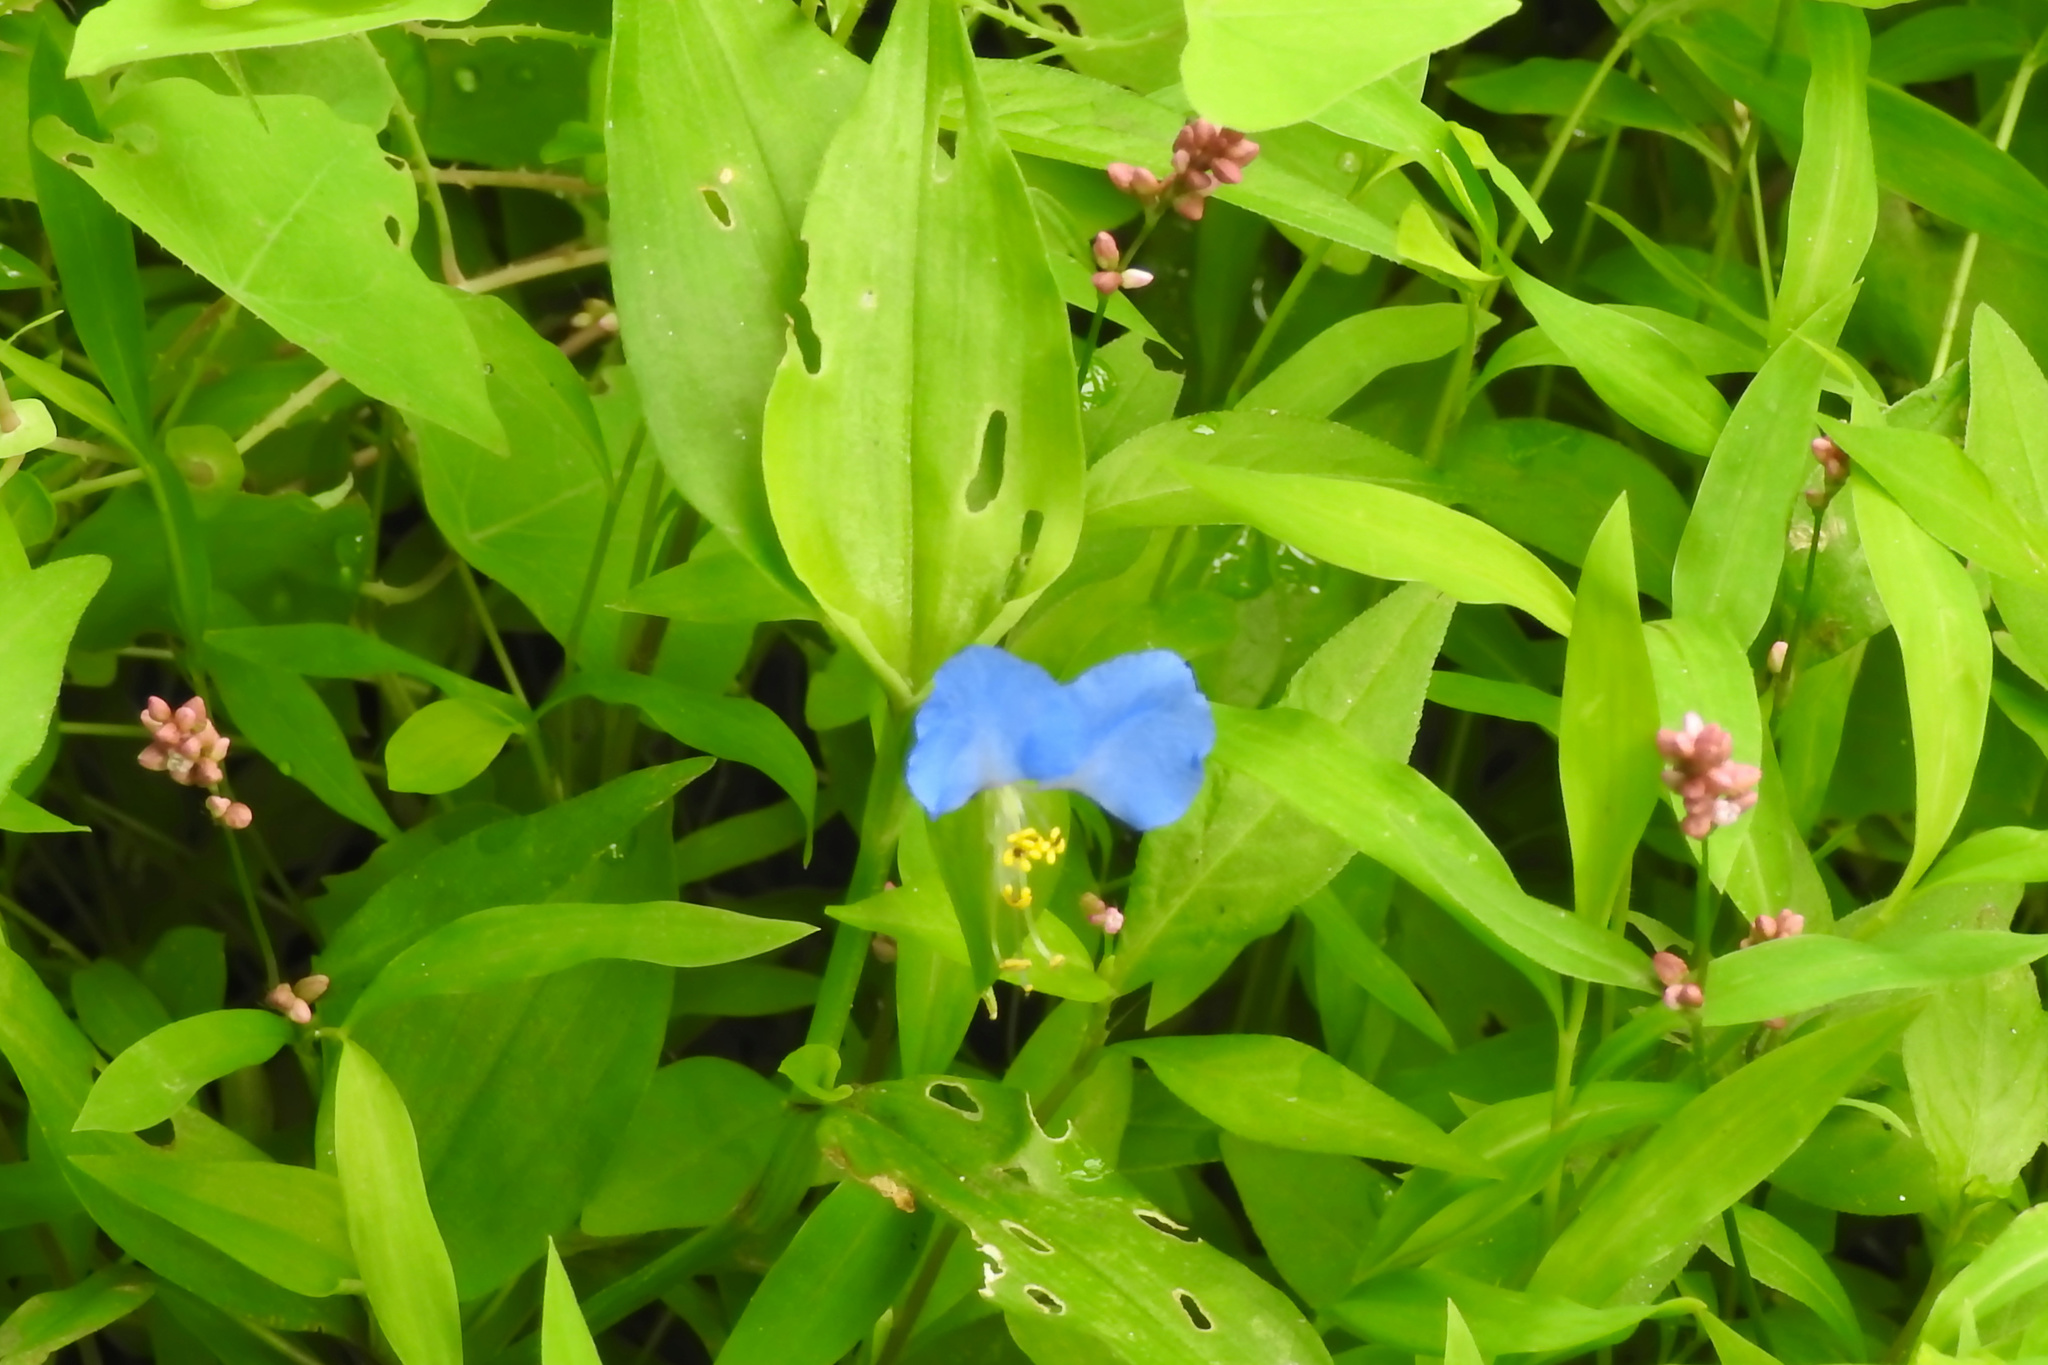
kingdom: Plantae
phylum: Tracheophyta
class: Liliopsida
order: Commelinales
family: Commelinaceae
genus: Commelina
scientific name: Commelina communis
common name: Asiatic dayflower
